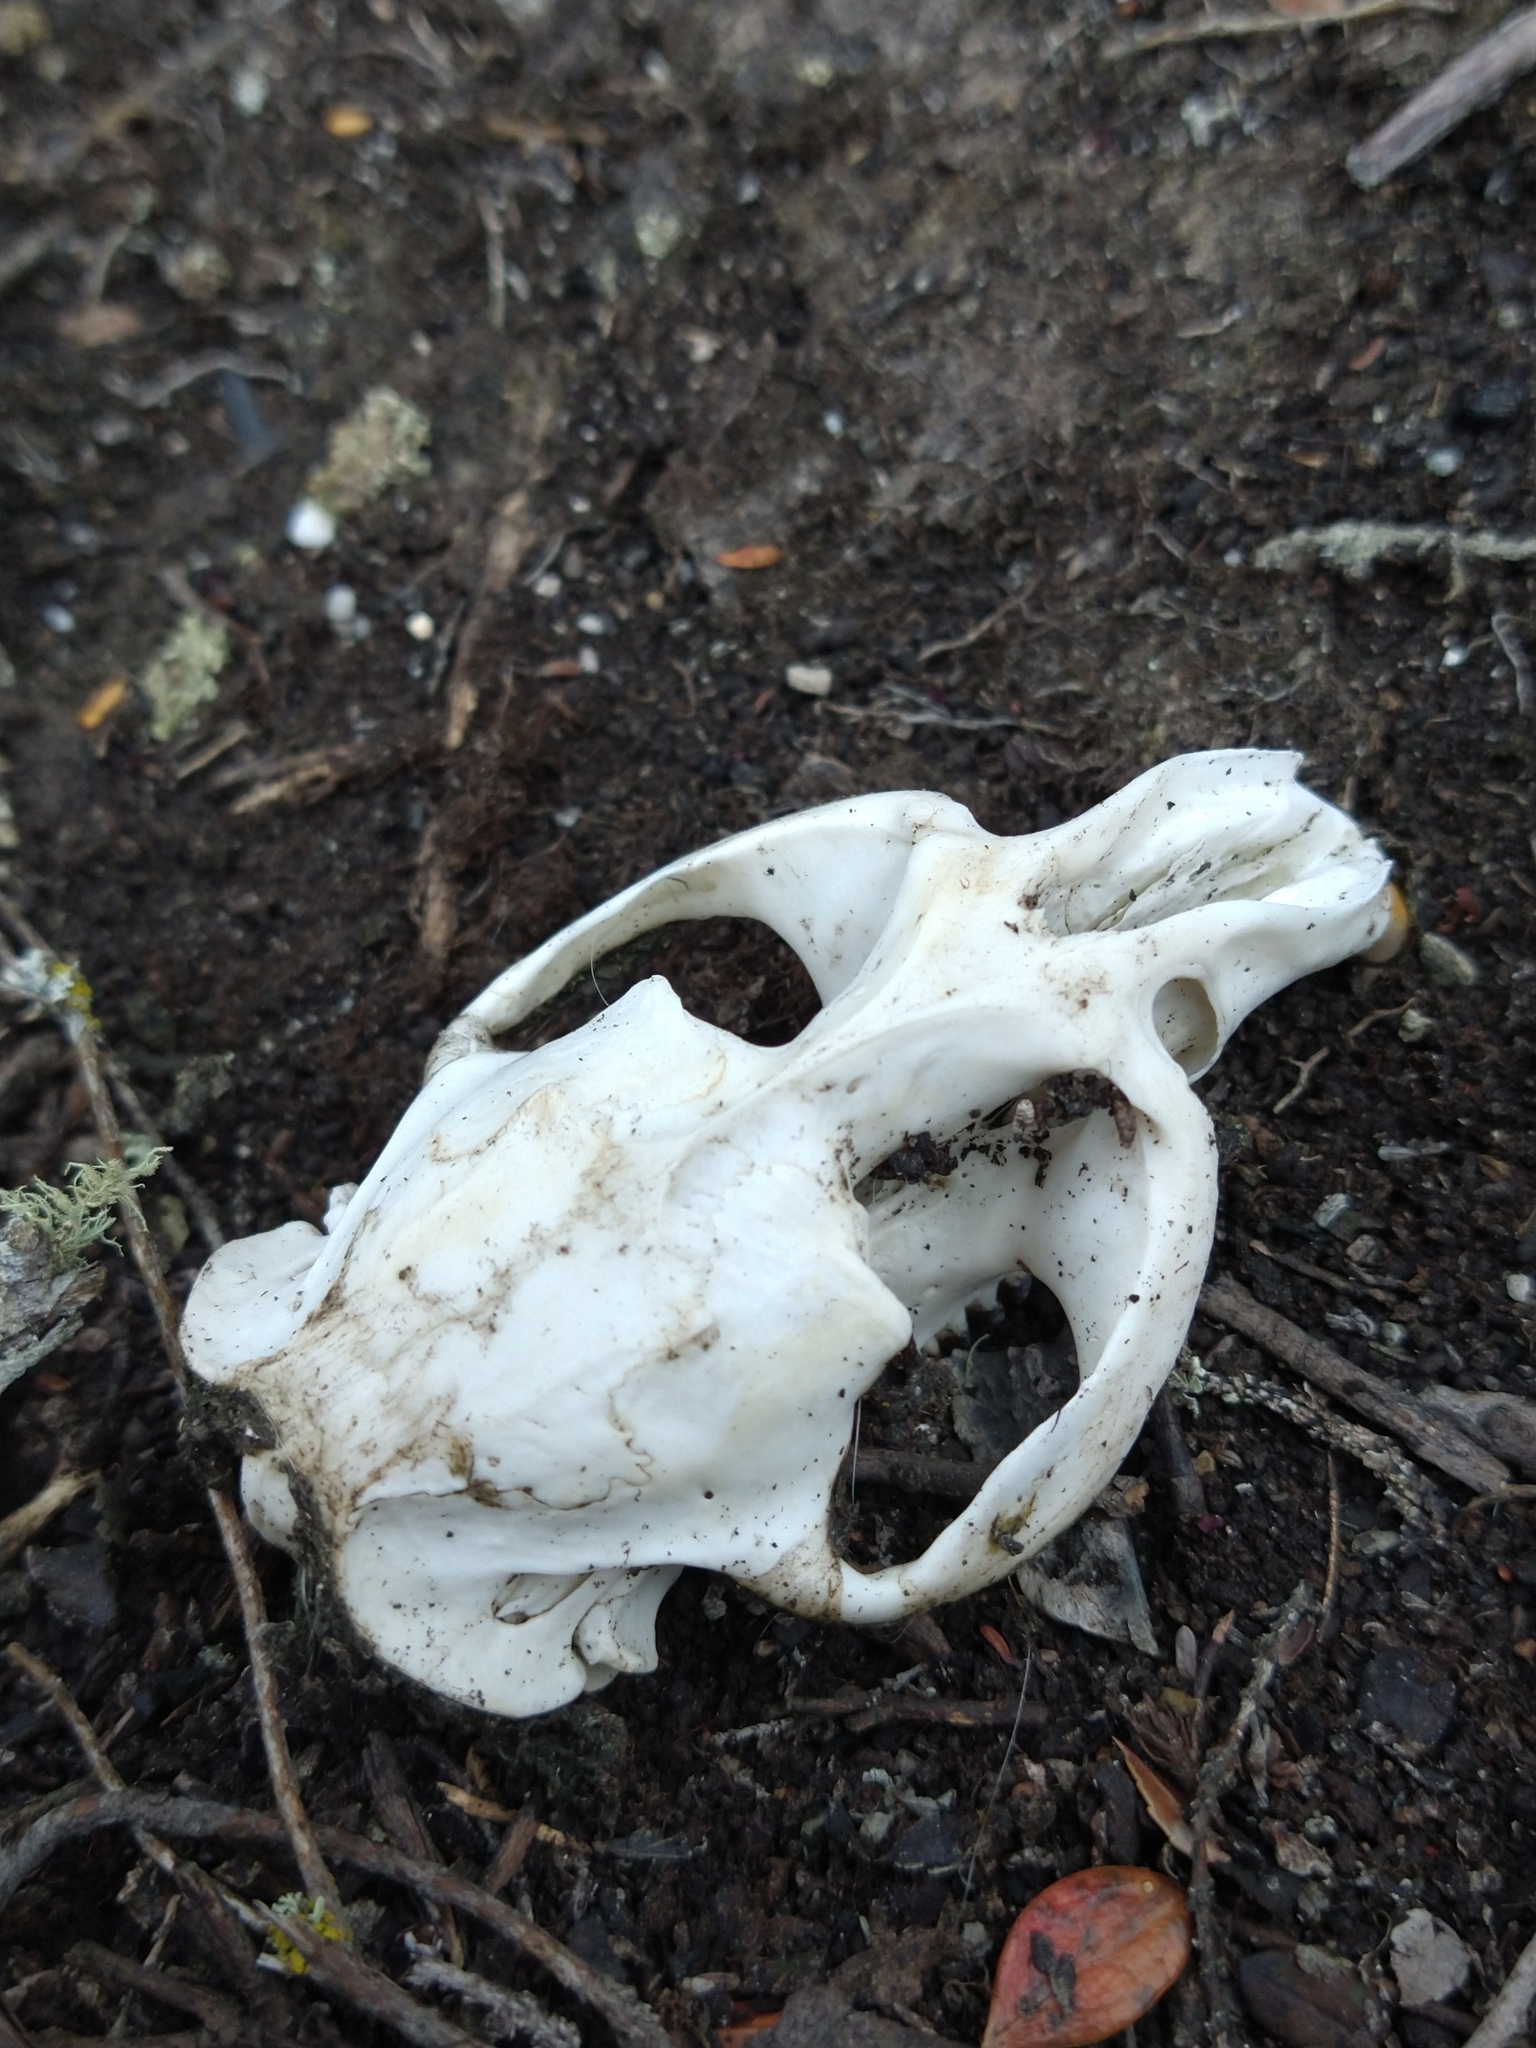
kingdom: Animalia
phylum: Chordata
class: Mammalia
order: Rodentia
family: Cricetidae
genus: Ondatra
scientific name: Ondatra zibethicus
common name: Muskrat
